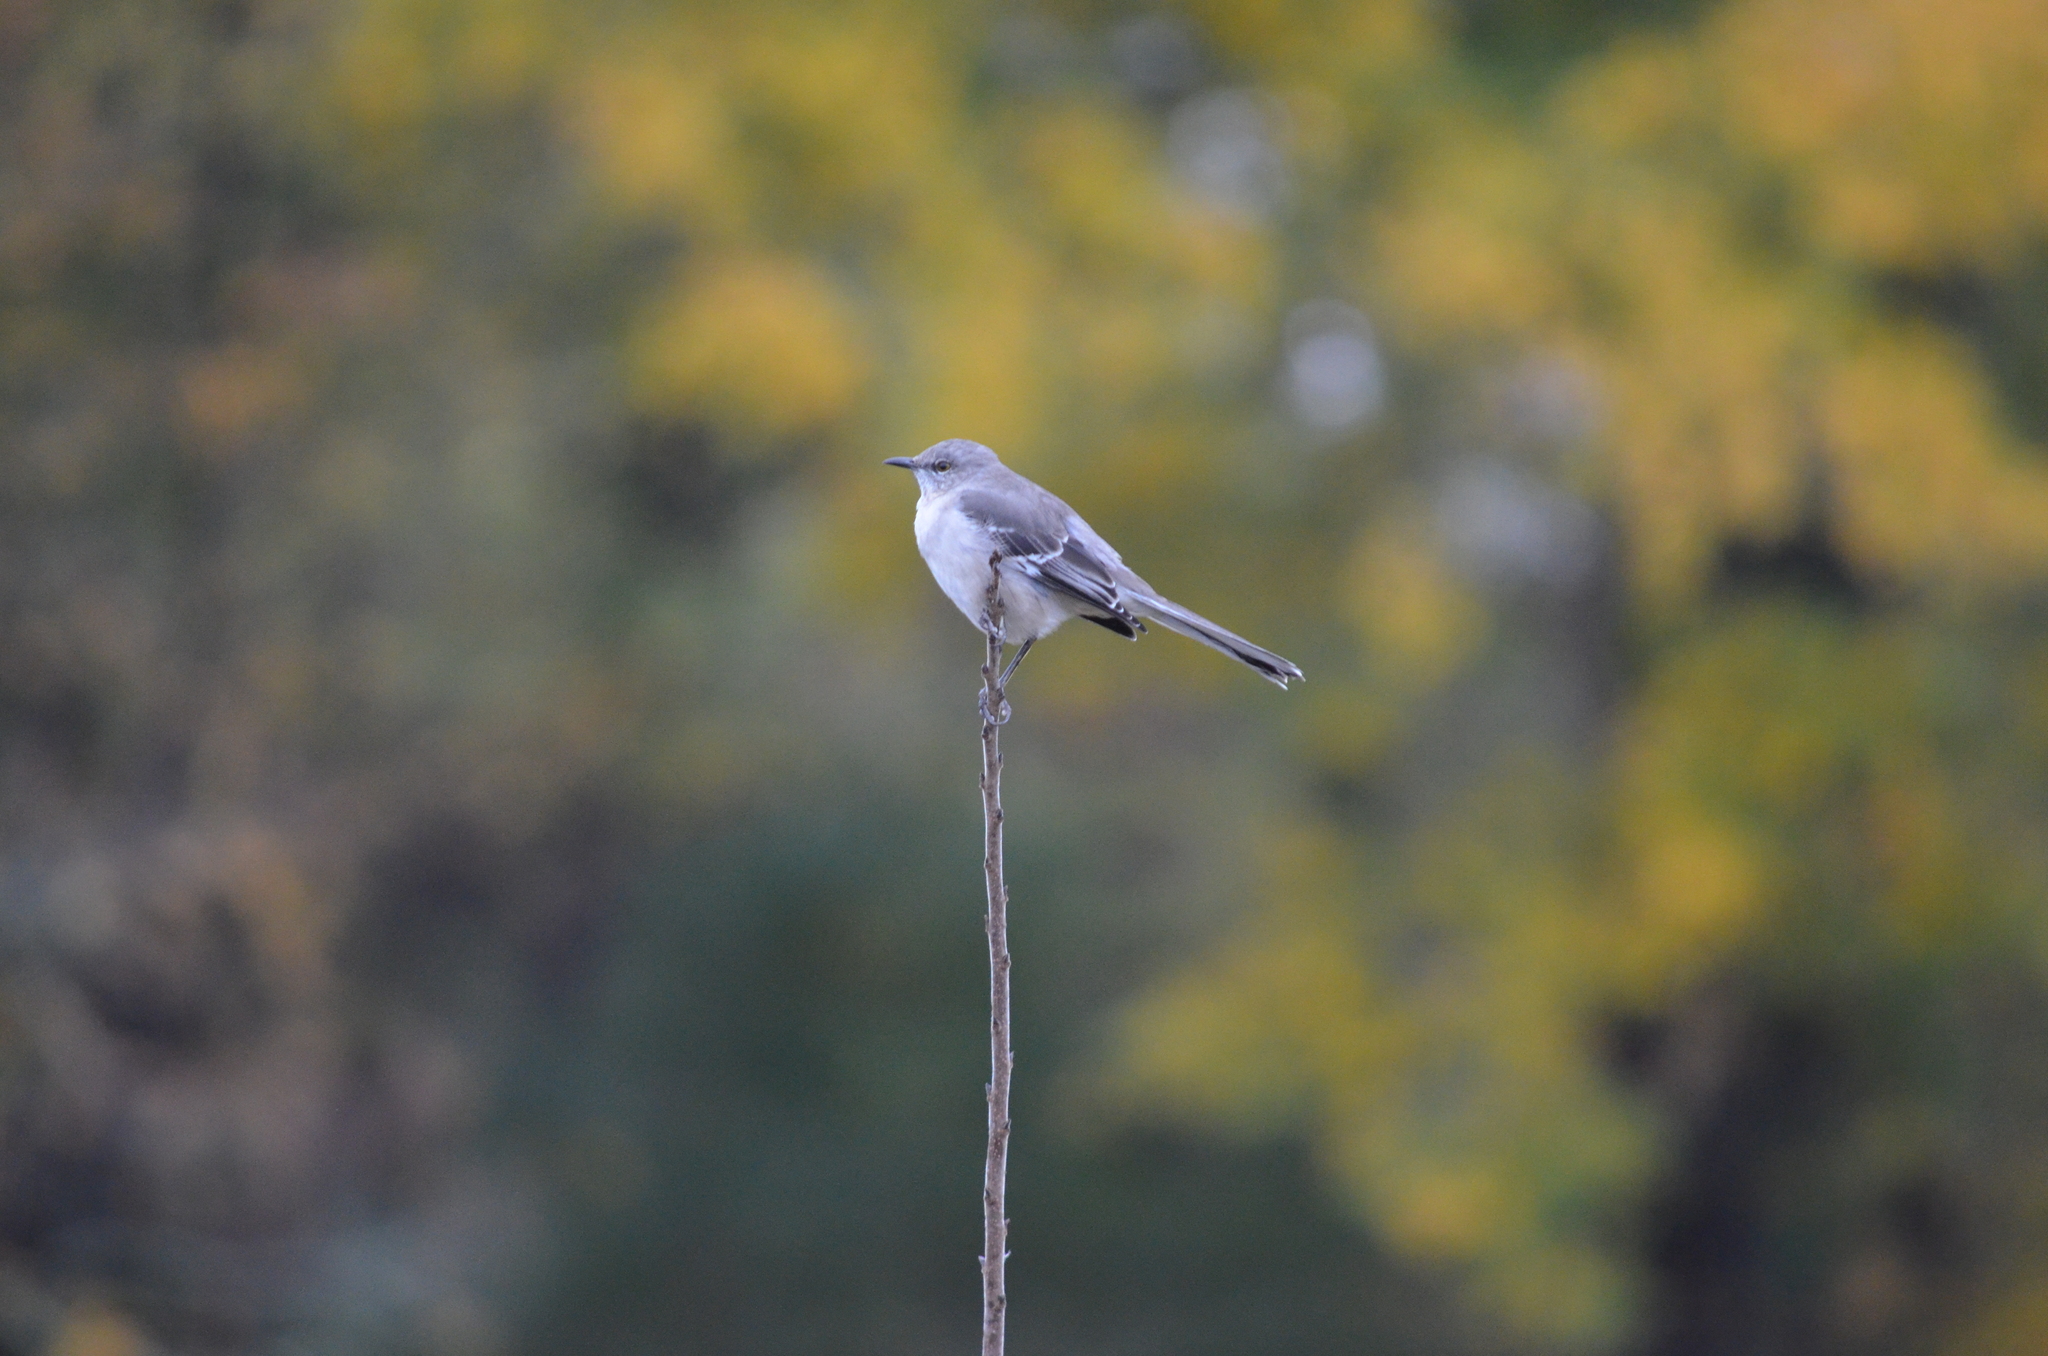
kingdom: Animalia
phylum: Chordata
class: Aves
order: Passeriformes
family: Mimidae
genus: Mimus
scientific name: Mimus polyglottos
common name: Northern mockingbird
